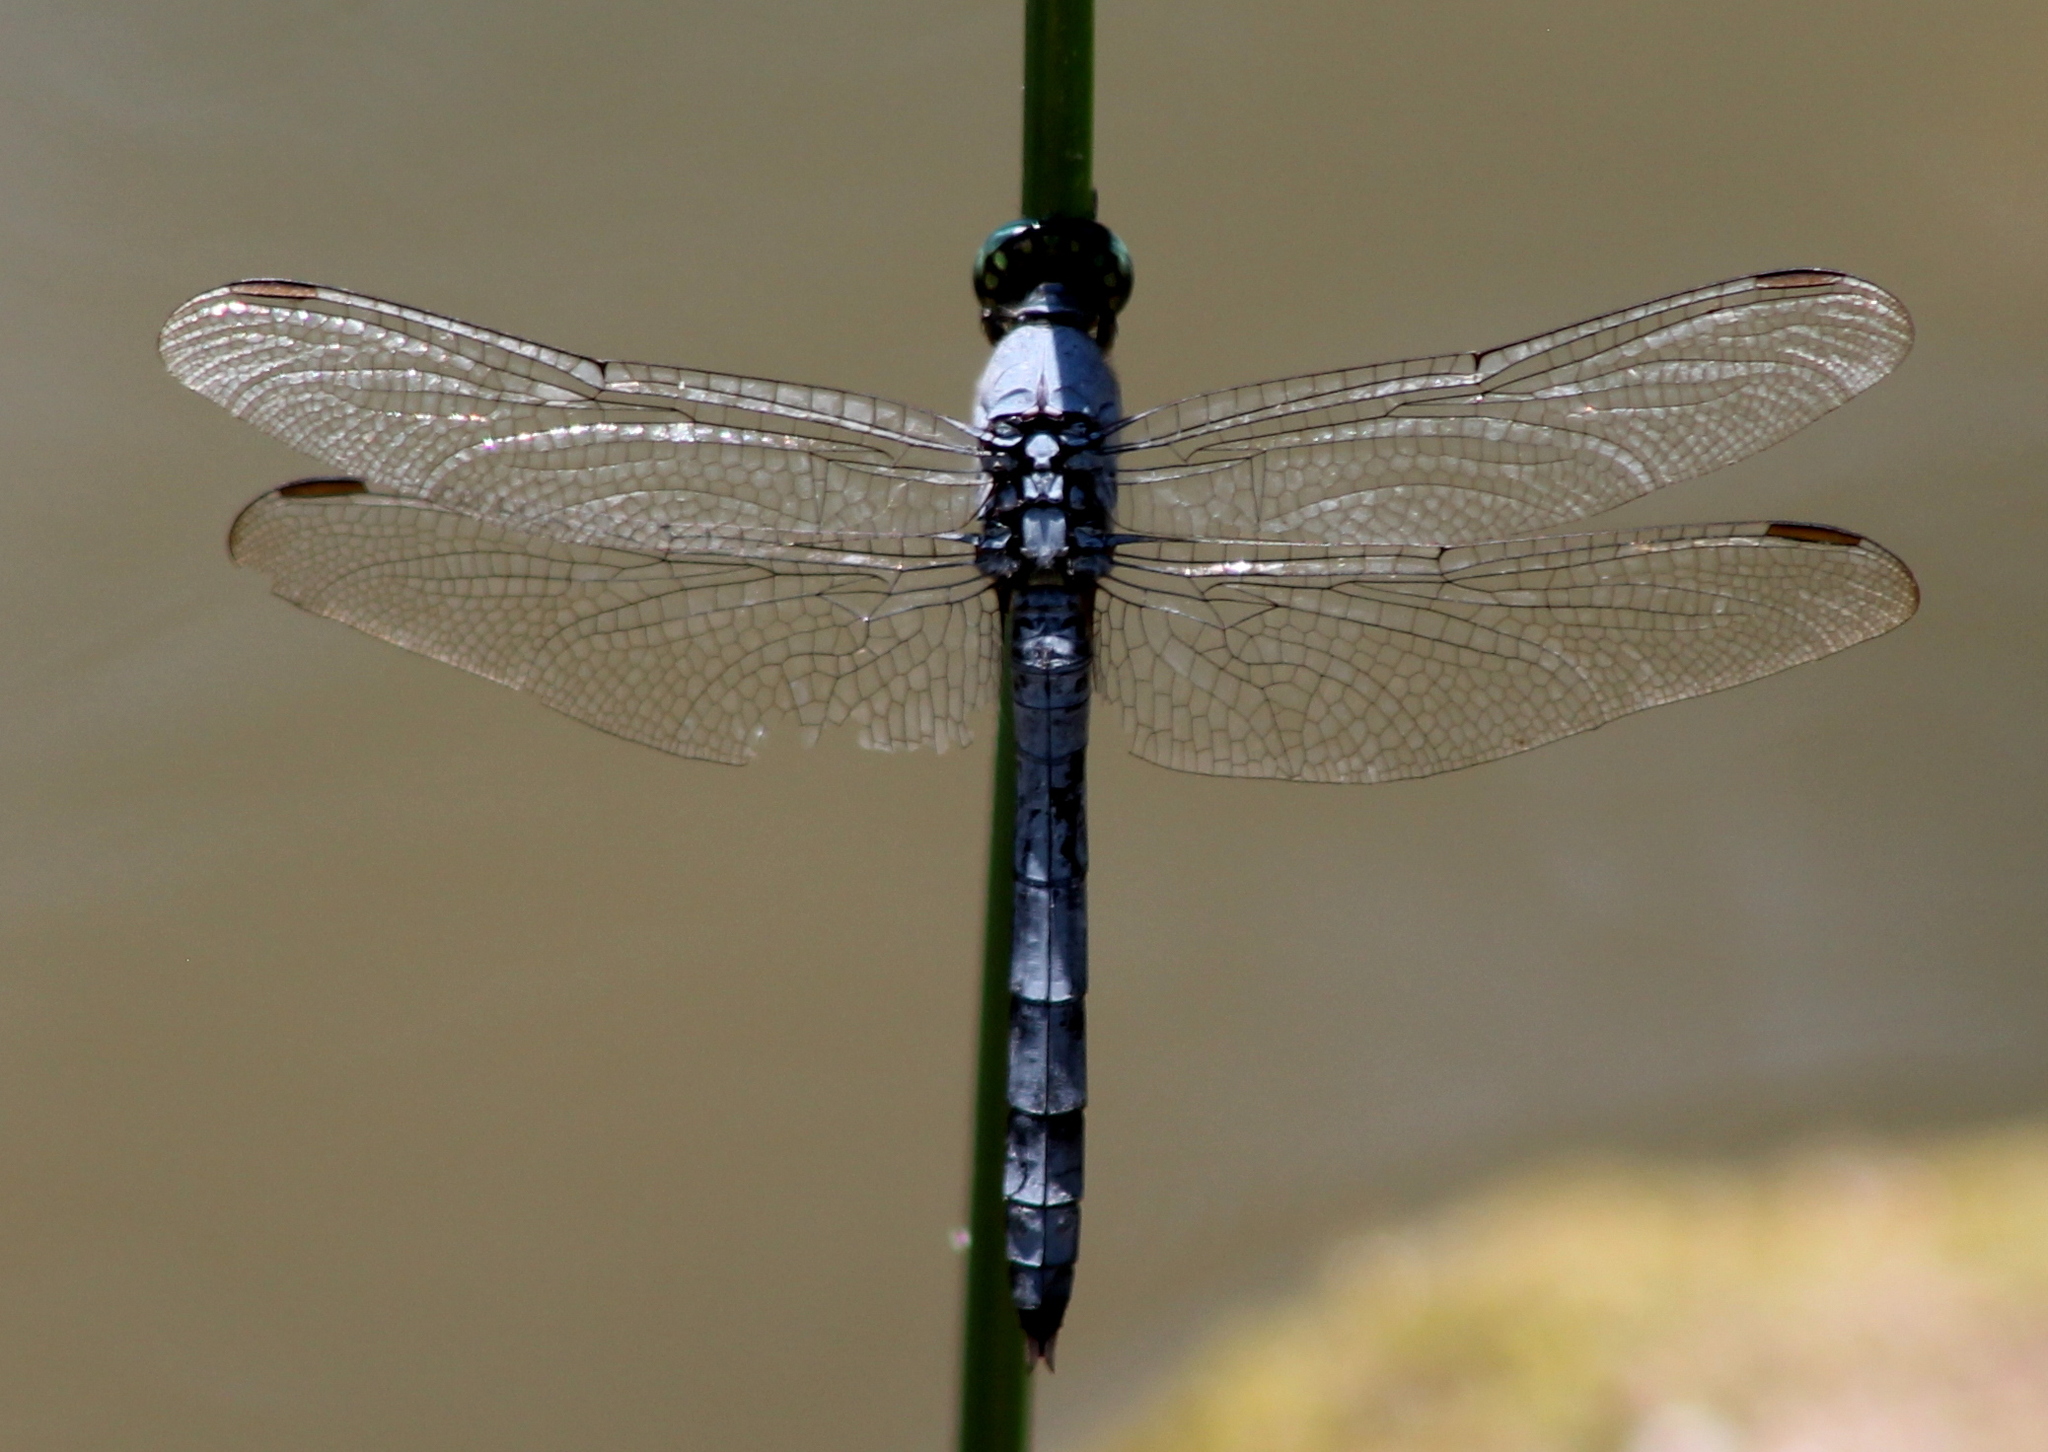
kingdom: Animalia
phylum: Arthropoda
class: Insecta
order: Odonata
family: Libellulidae
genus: Erythemis
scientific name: Erythemis simplicicollis
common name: Eastern pondhawk
